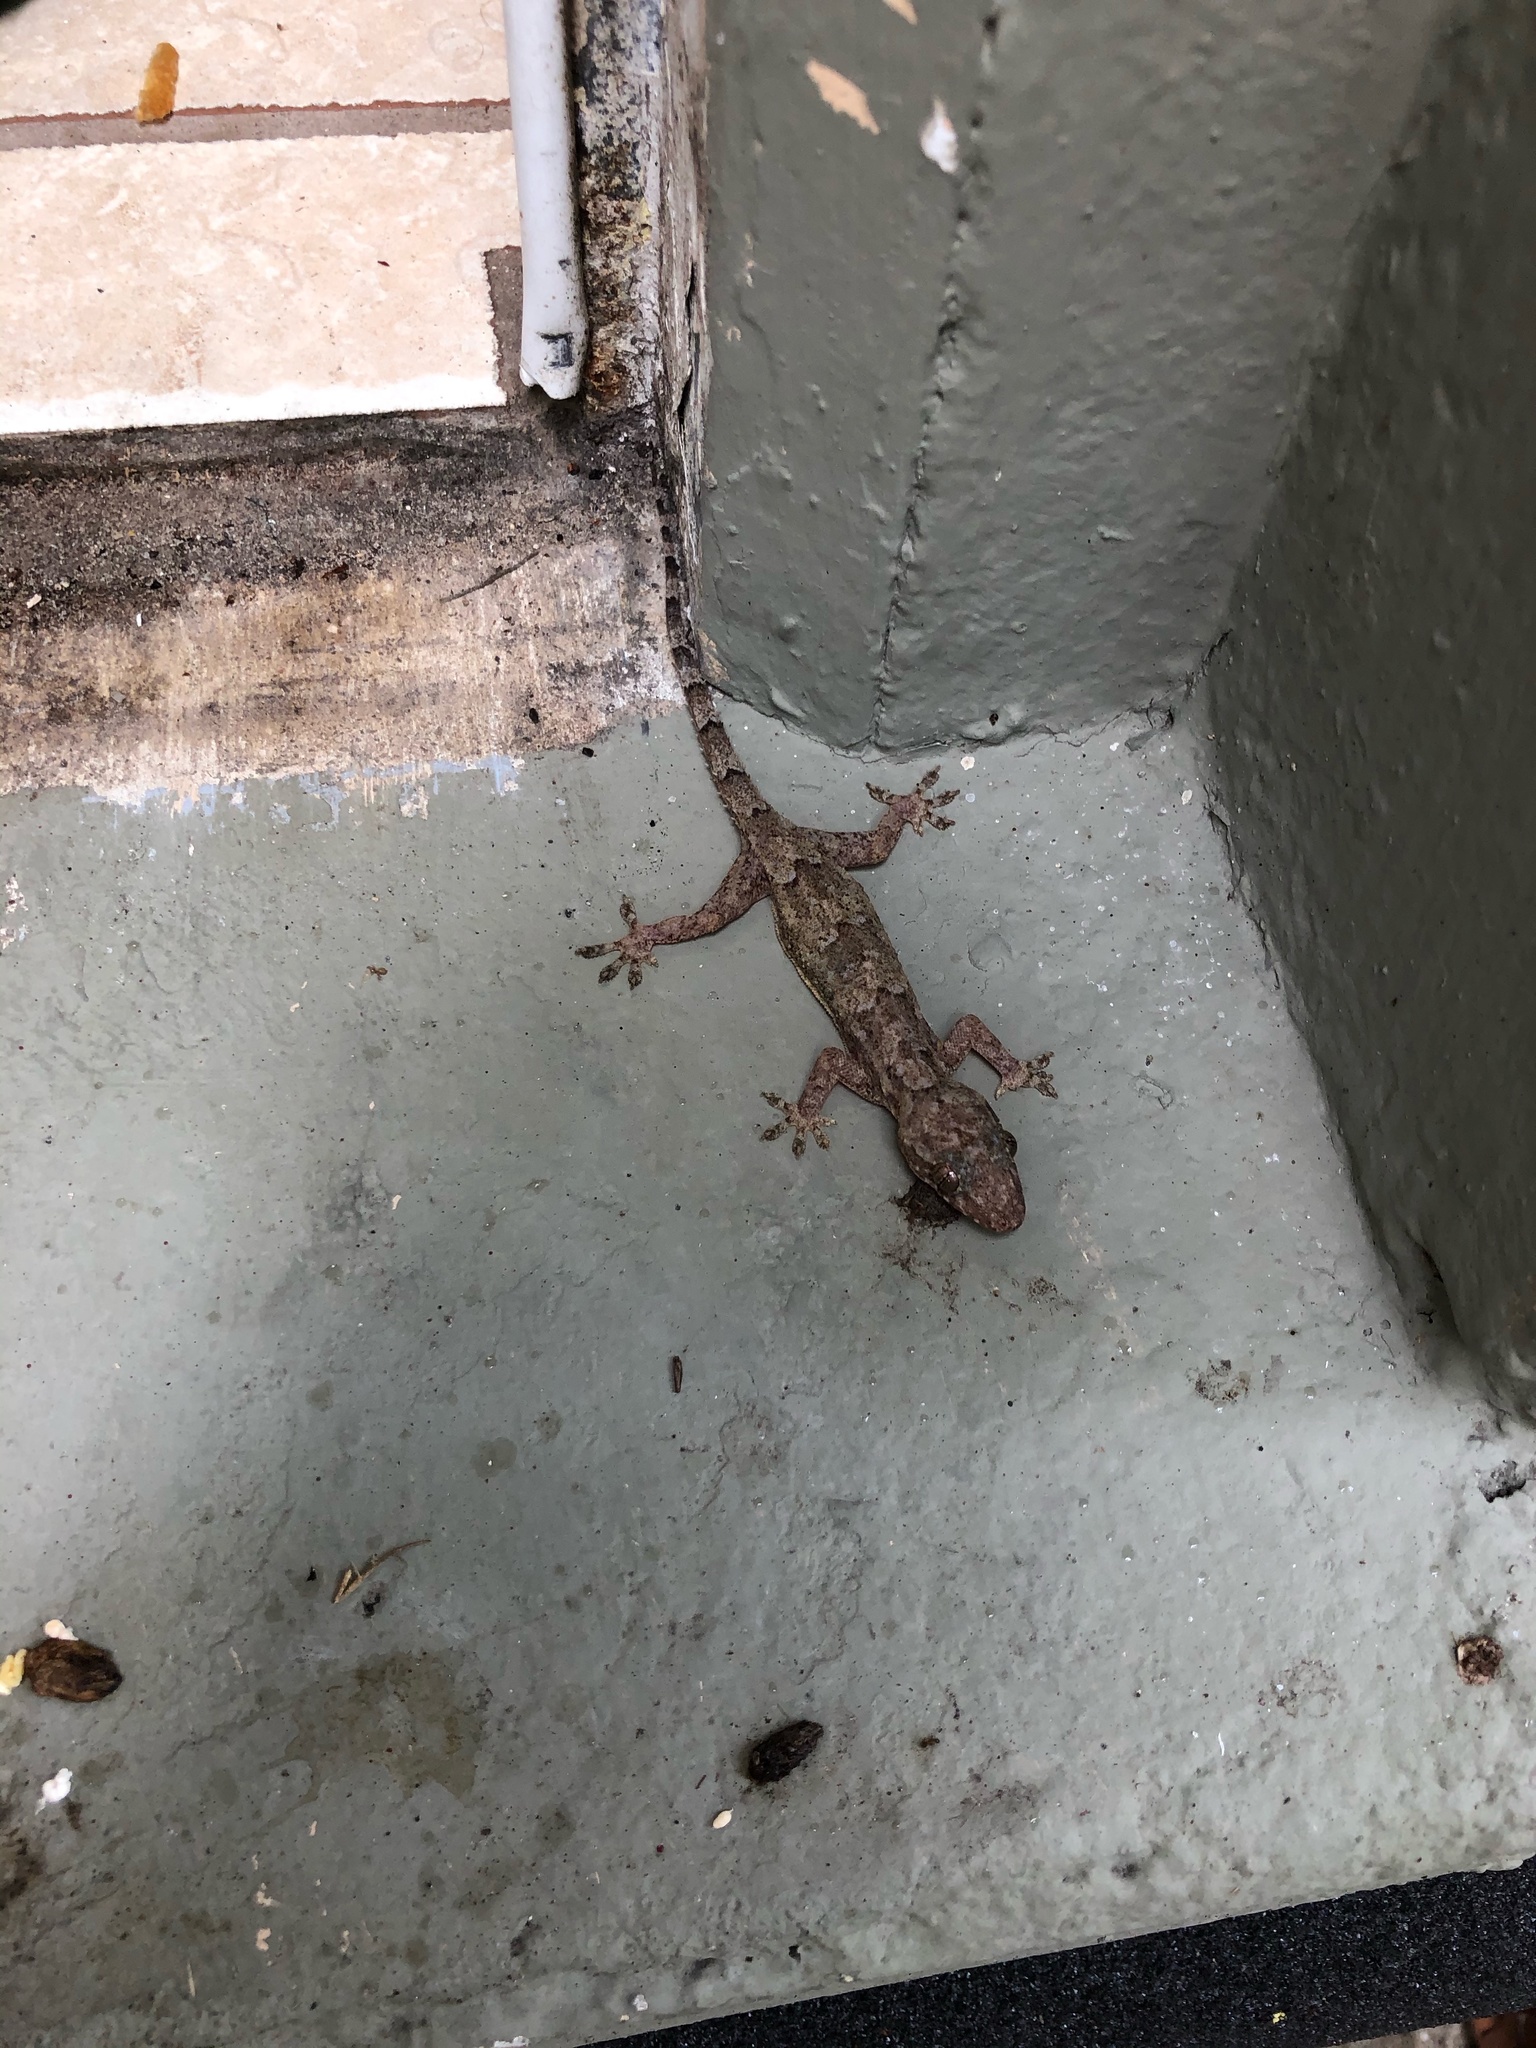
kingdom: Animalia
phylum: Chordata
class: Squamata
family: Gekkonidae
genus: Hemidactylus
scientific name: Hemidactylus mabouia
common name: House gecko
